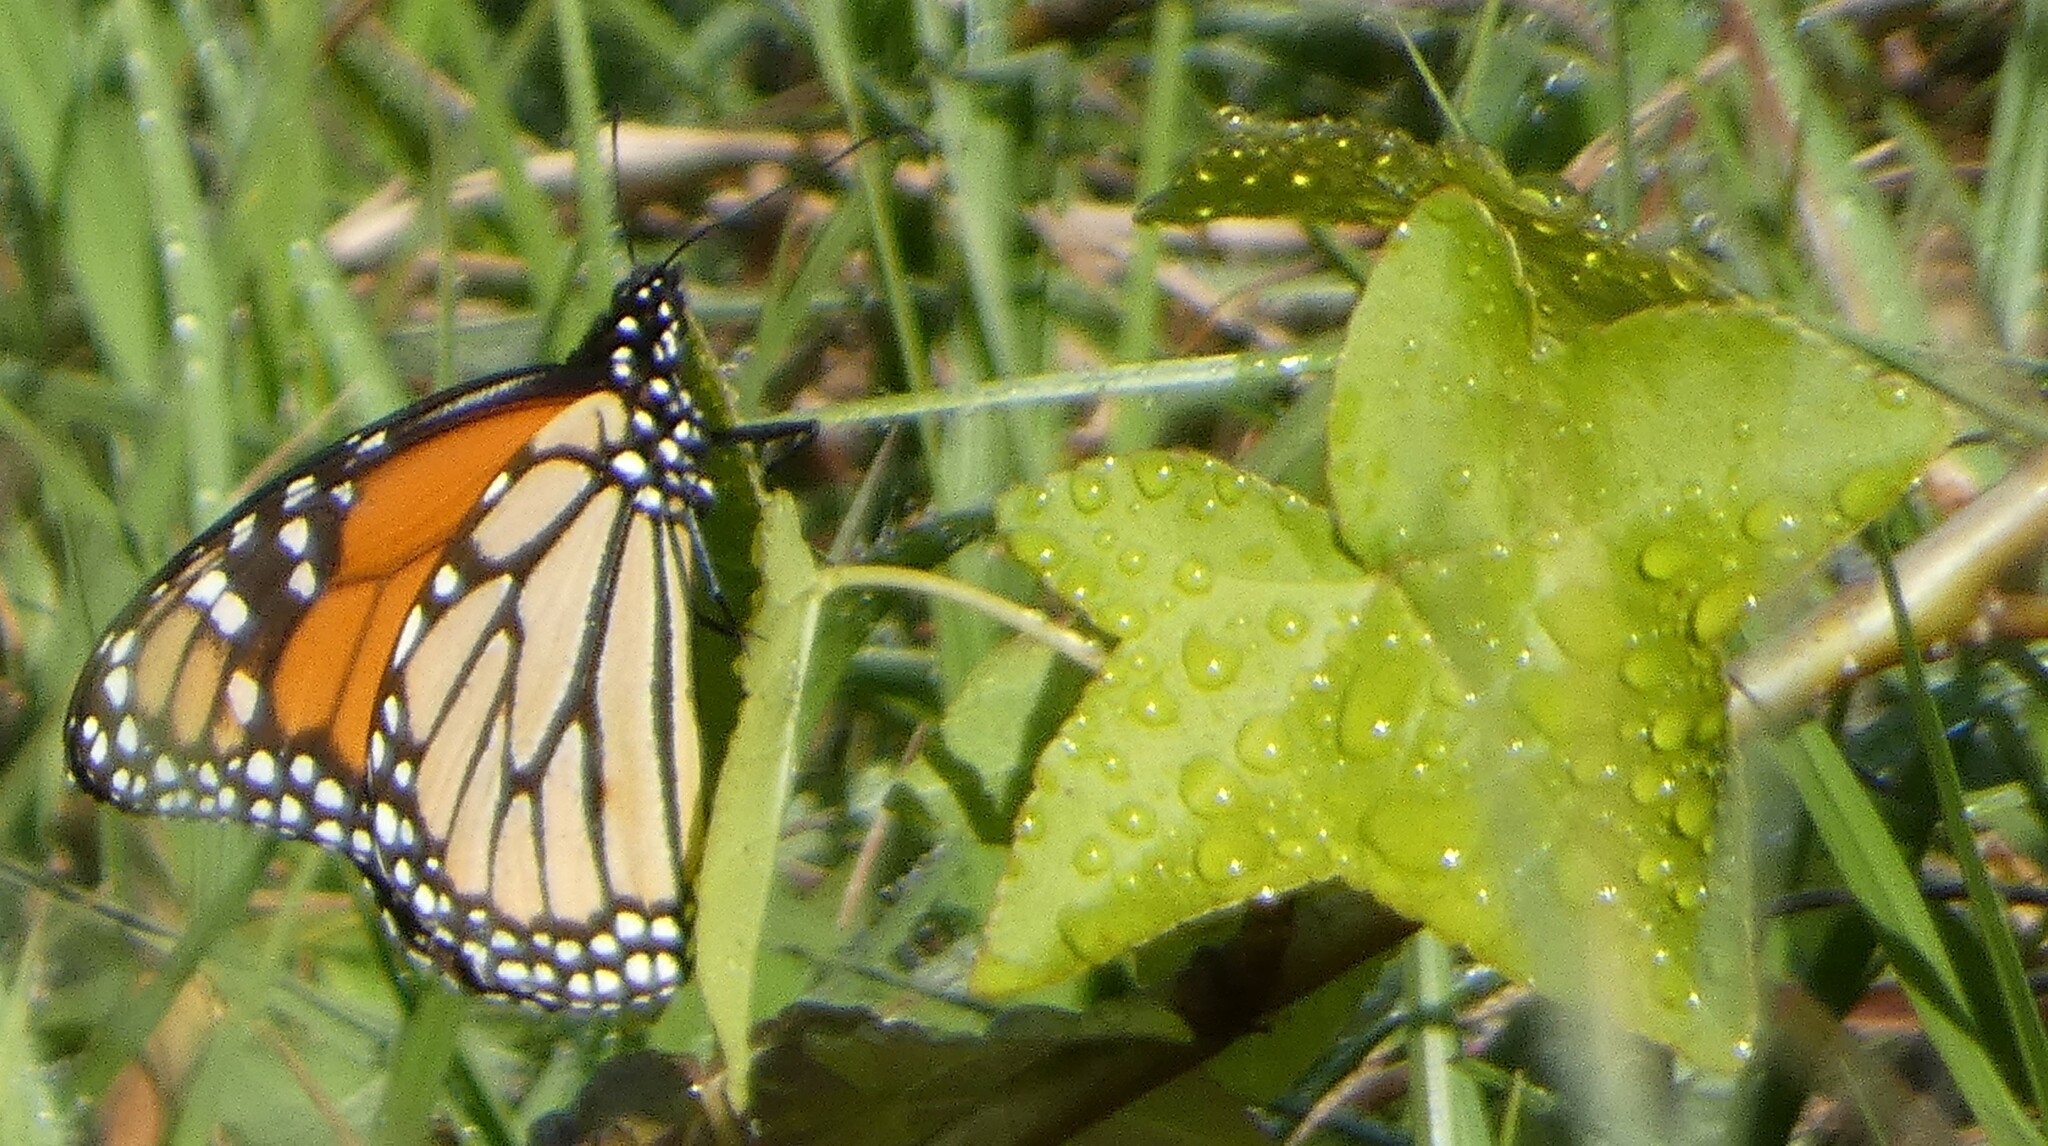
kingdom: Animalia
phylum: Arthropoda
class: Insecta
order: Lepidoptera
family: Nymphalidae
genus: Danaus
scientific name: Danaus plexippus
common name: Monarch
